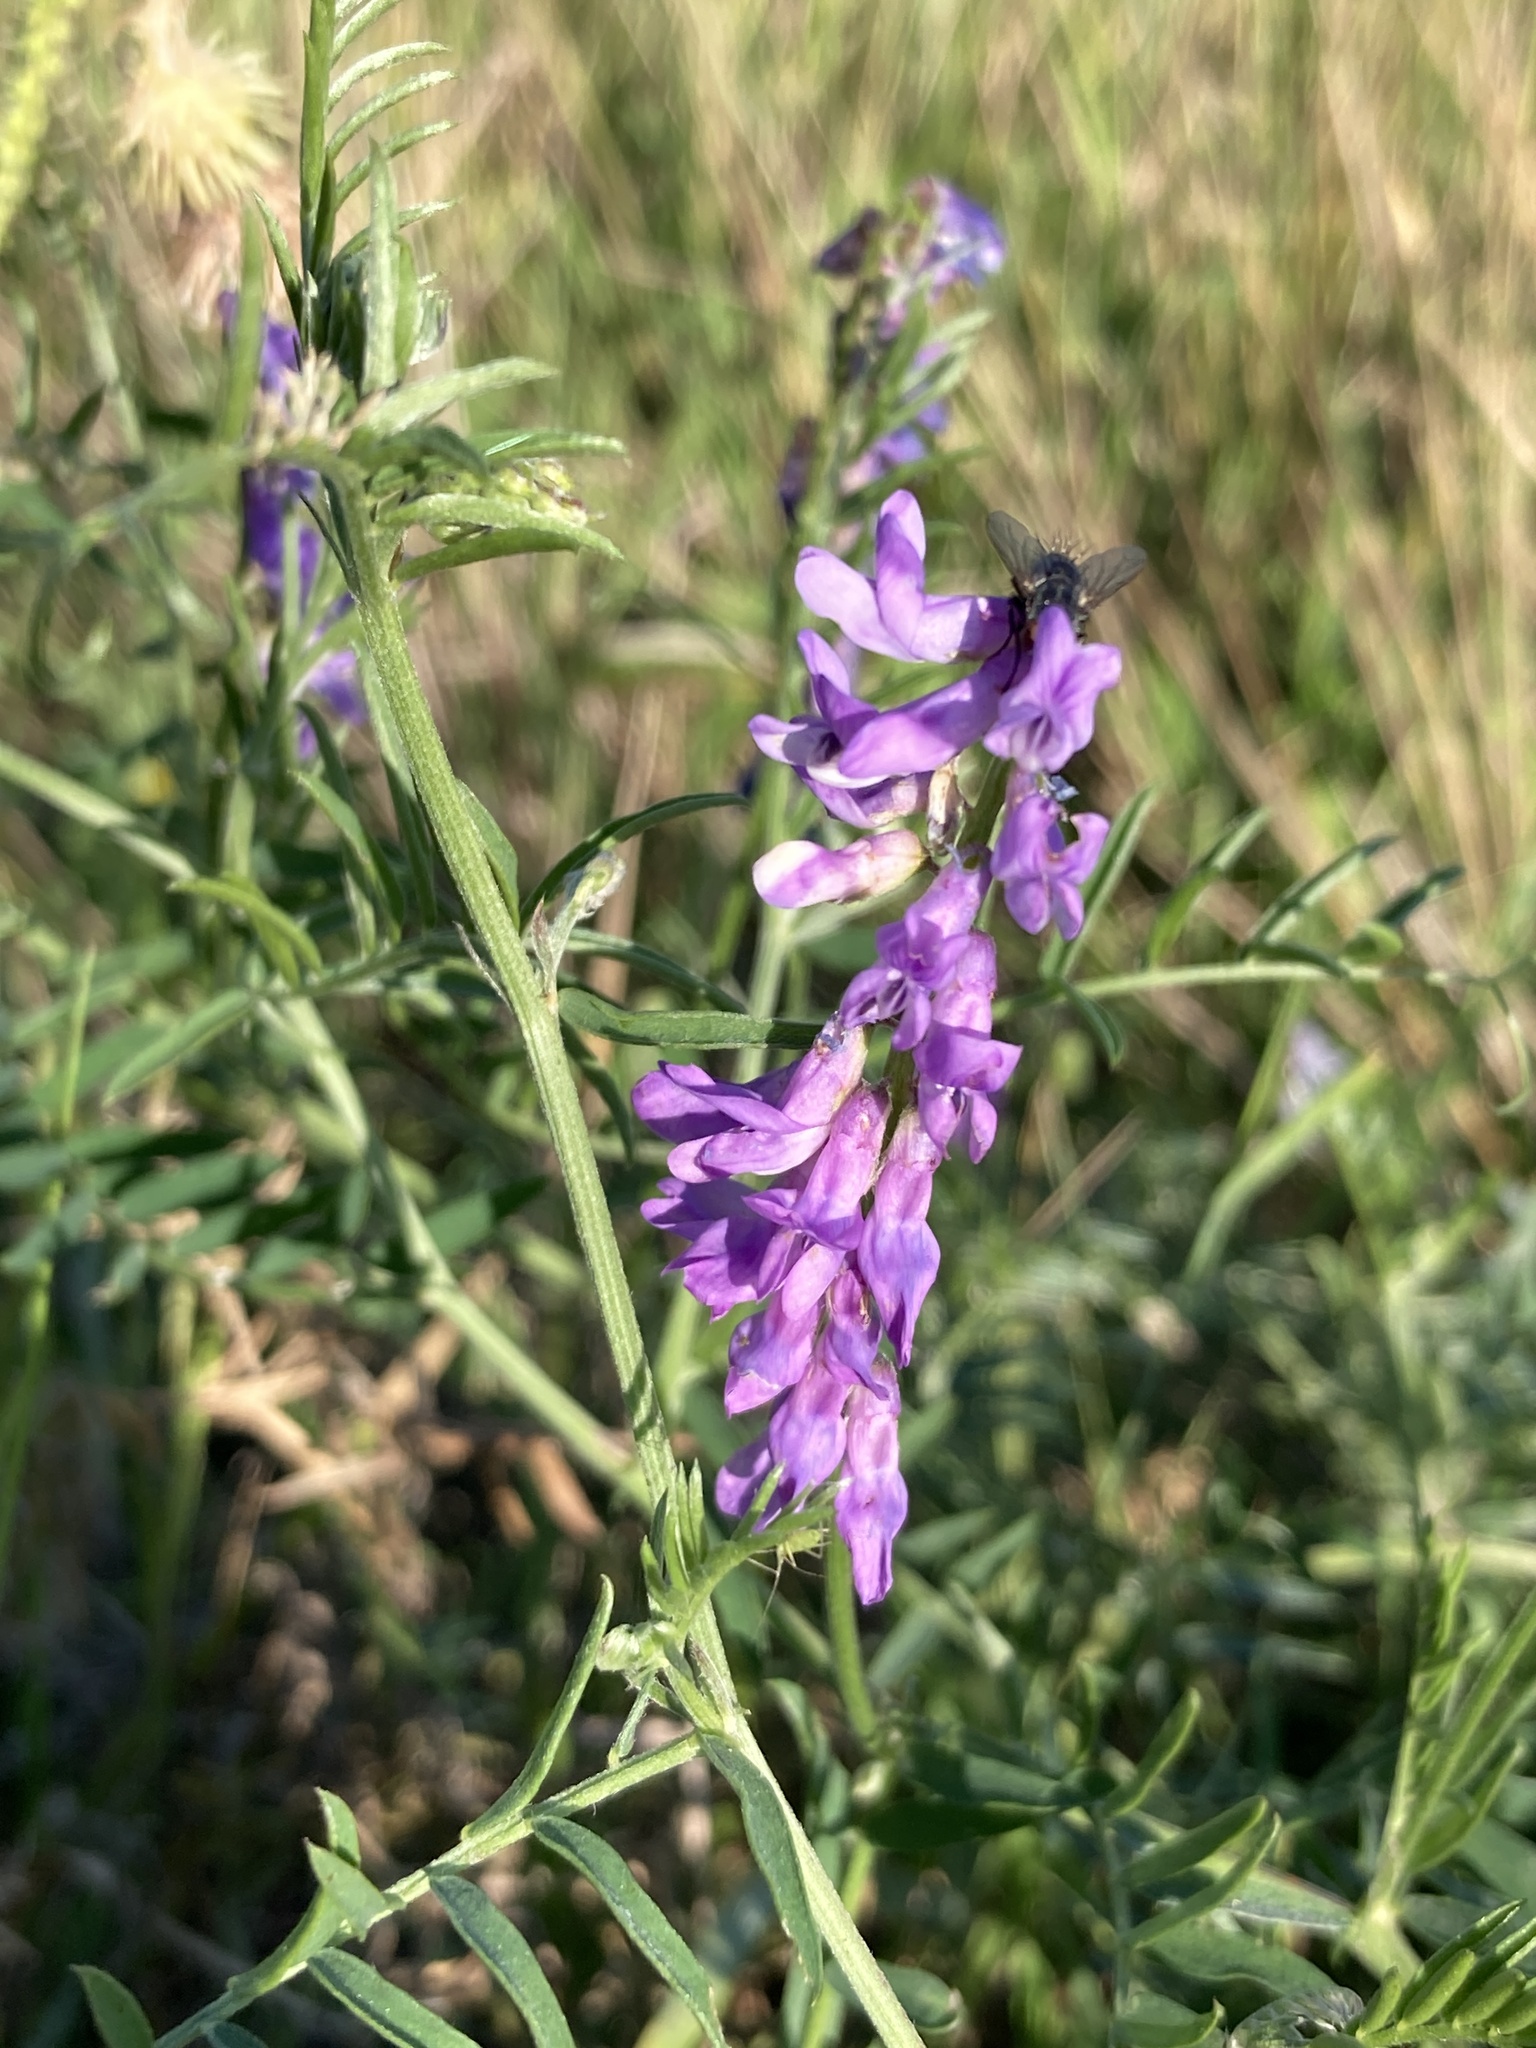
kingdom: Plantae
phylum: Tracheophyta
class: Magnoliopsida
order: Fabales
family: Fabaceae
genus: Vicia
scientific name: Vicia cracca
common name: Bird vetch
